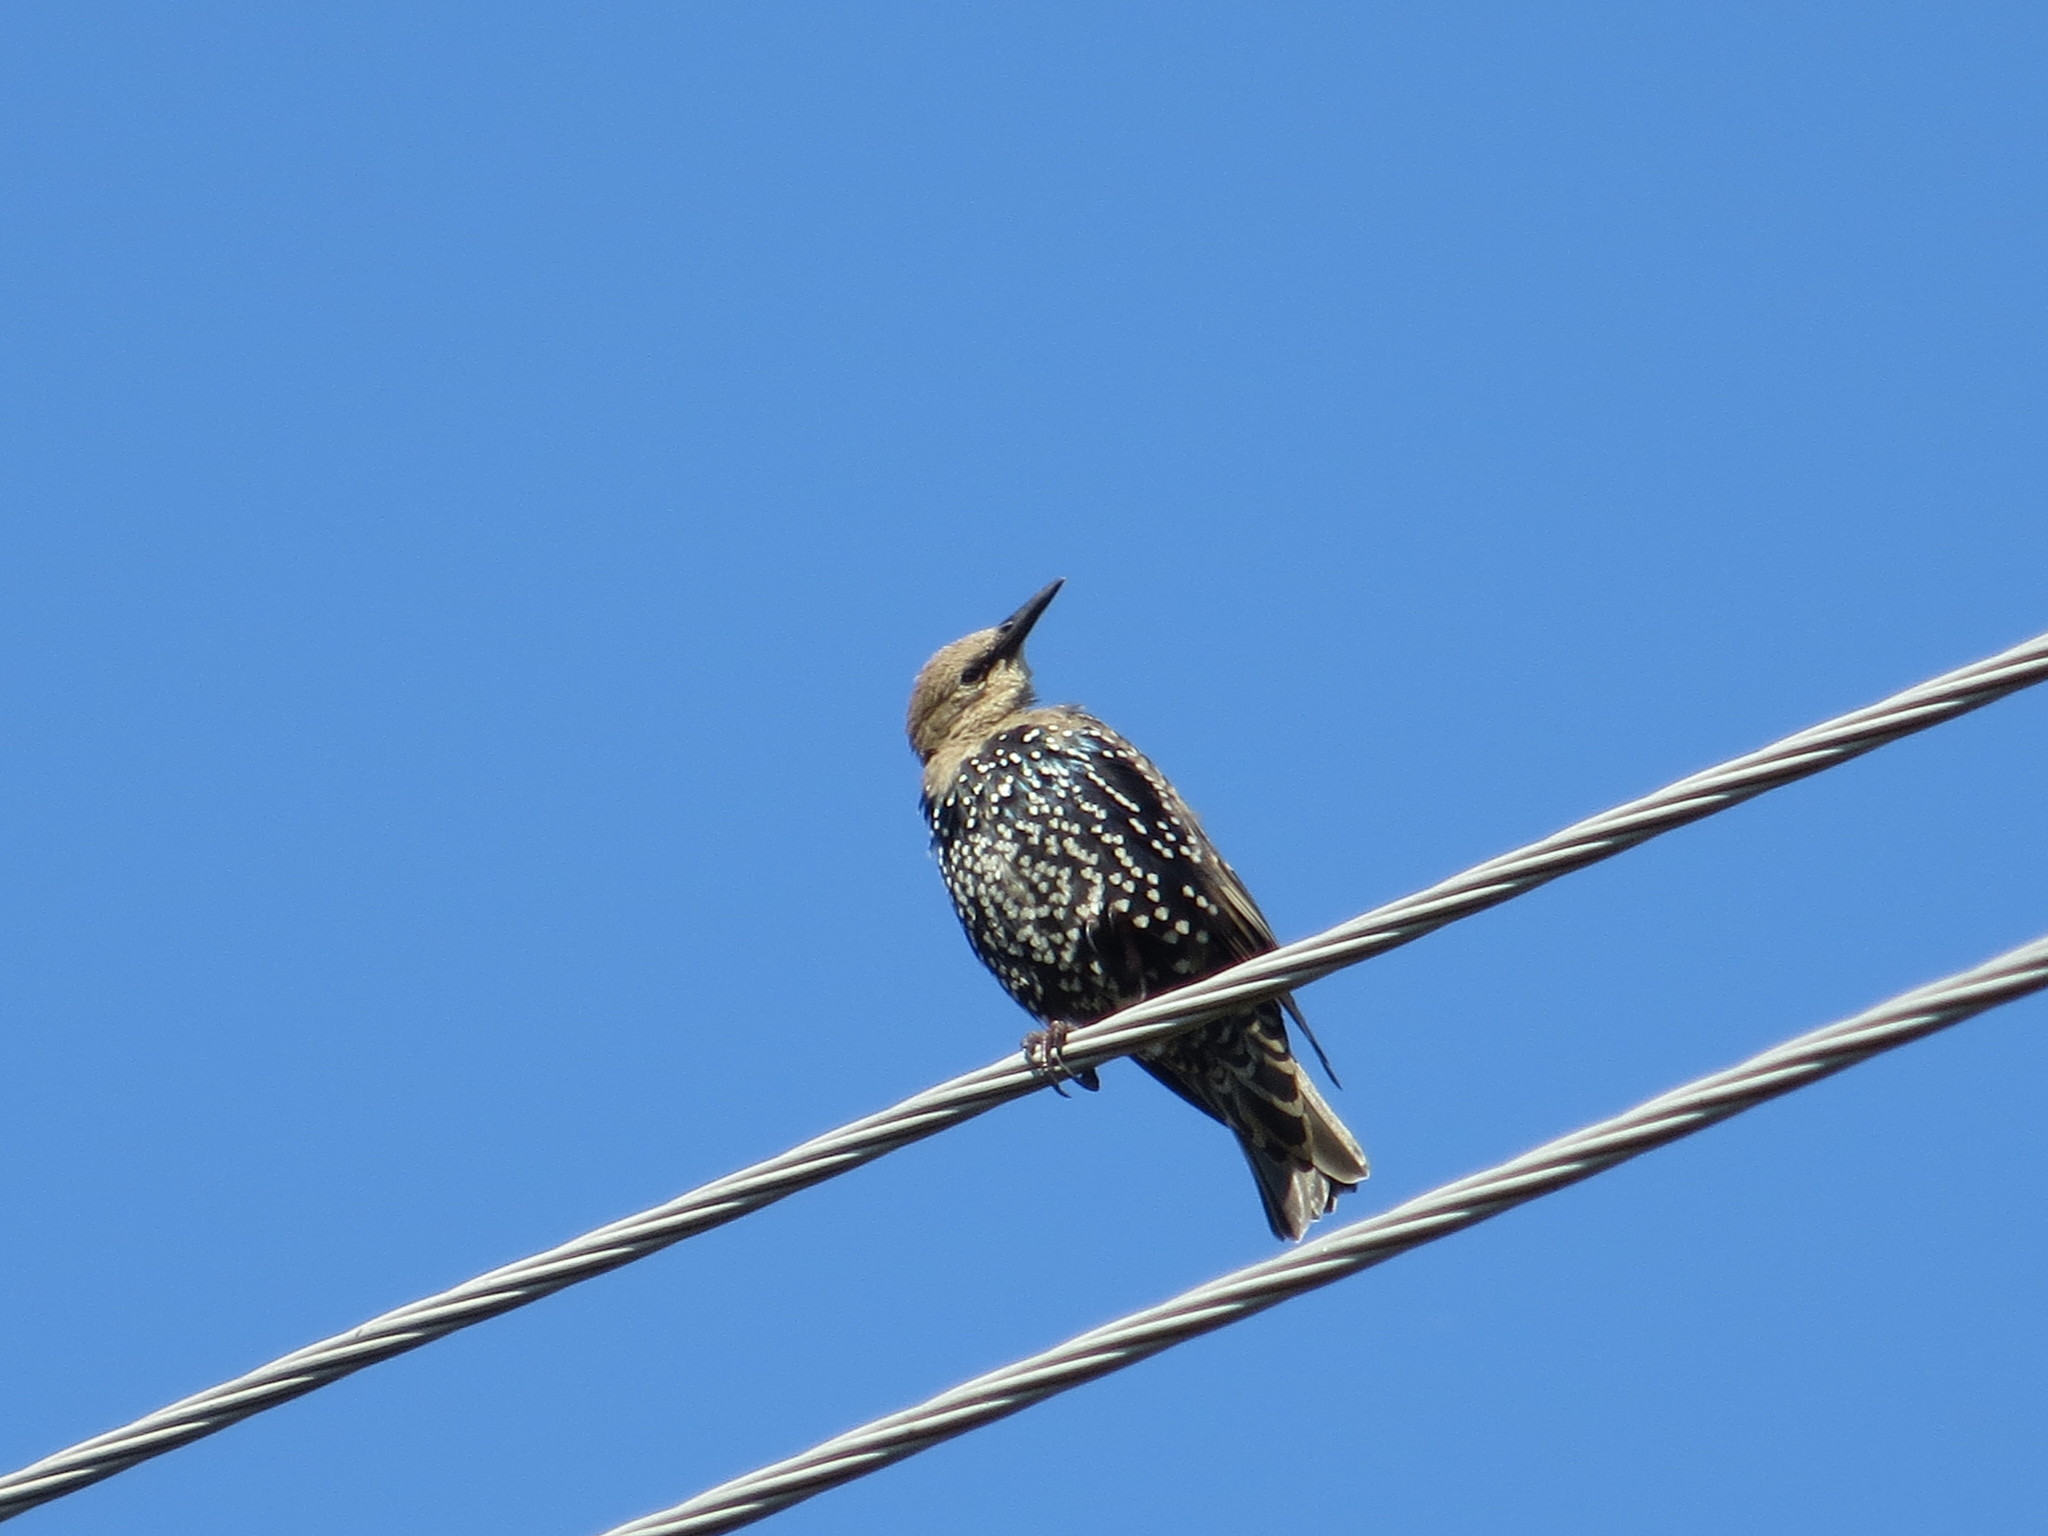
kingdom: Animalia
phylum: Chordata
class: Aves
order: Passeriformes
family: Sturnidae
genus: Sturnus
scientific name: Sturnus vulgaris
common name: Common starling
